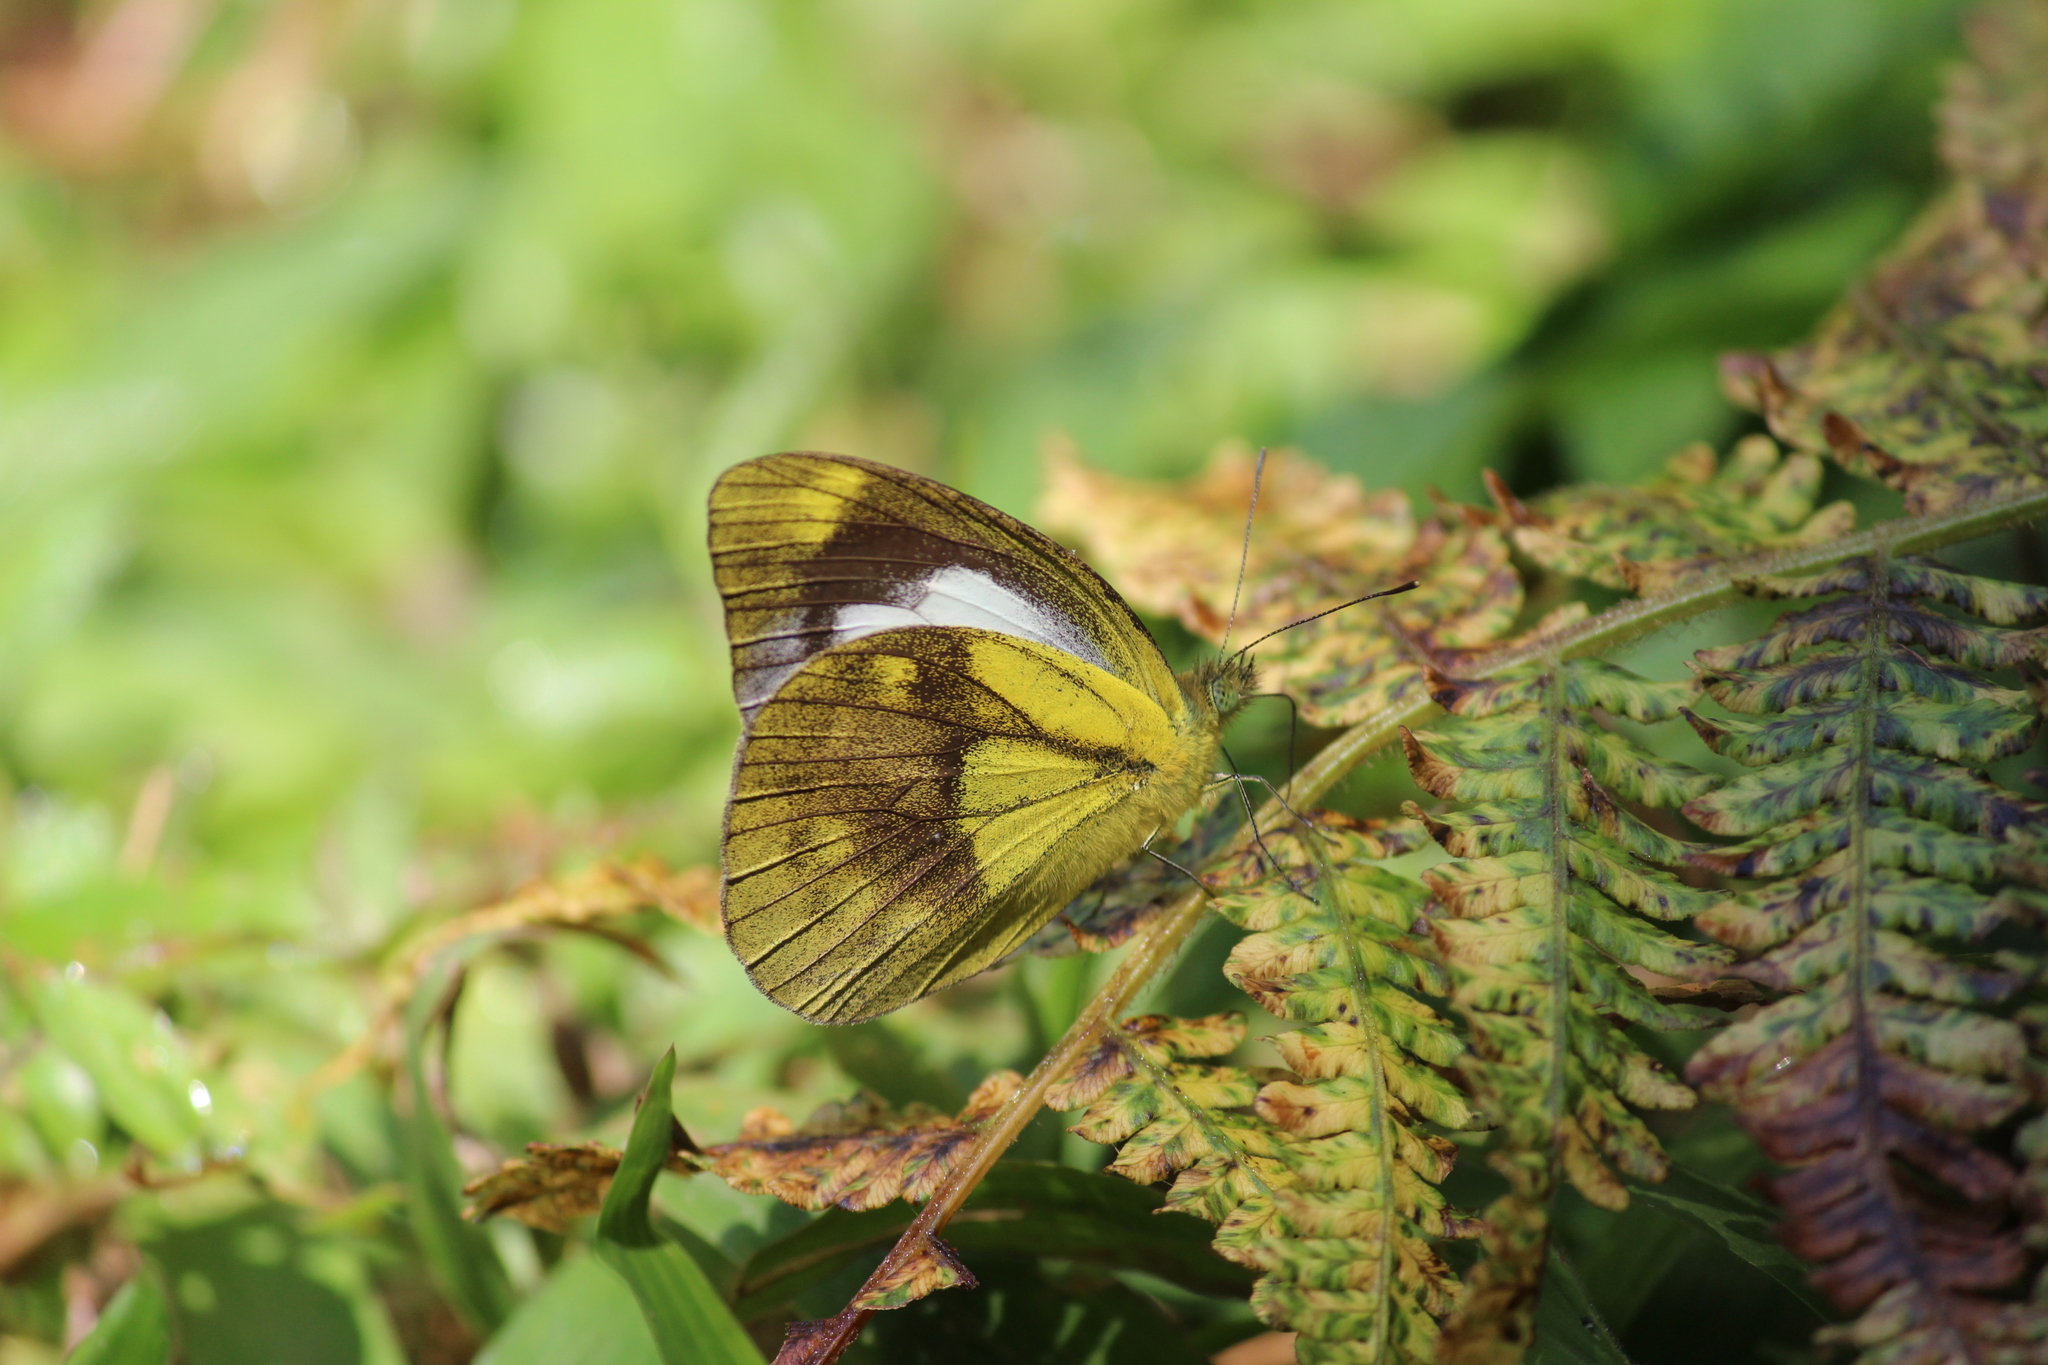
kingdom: Animalia
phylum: Arthropoda
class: Insecta
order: Lepidoptera
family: Pieridae
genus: Cepora
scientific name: Cepora nadina
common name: Lesser gull
